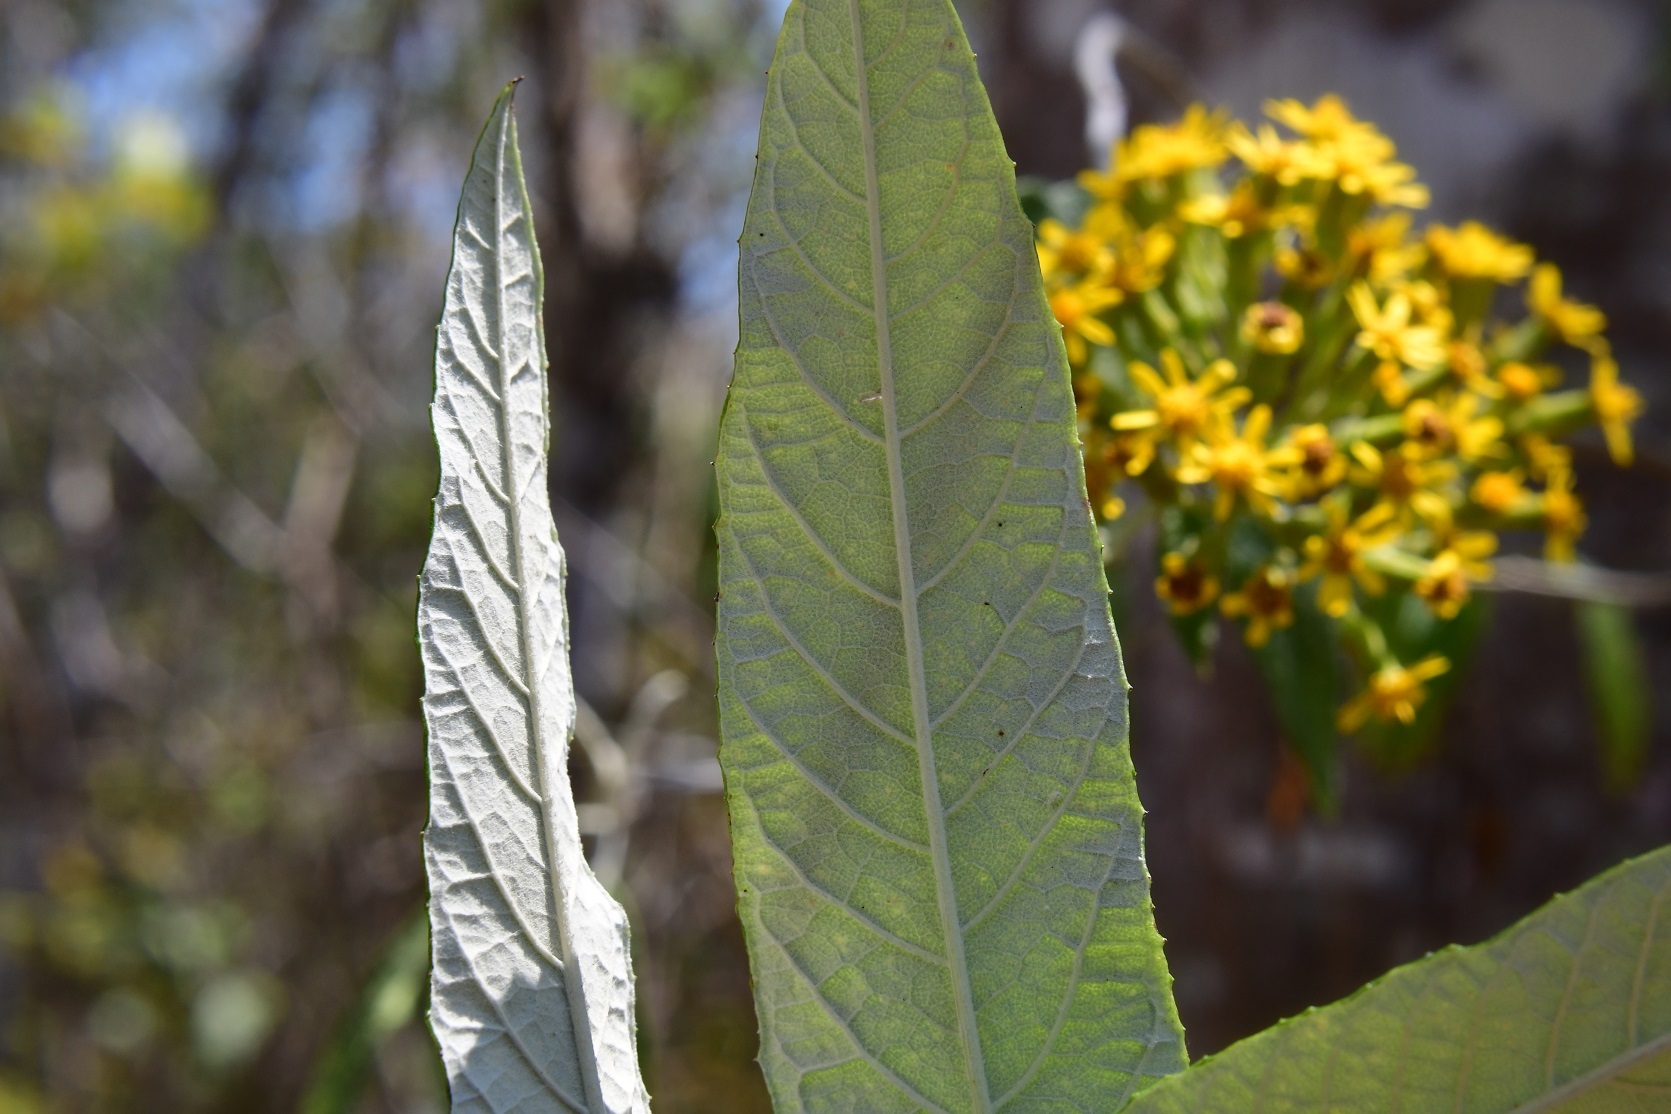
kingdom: Plantae
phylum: Tracheophyta
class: Magnoliopsida
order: Asterales
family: Asteraceae
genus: Zemisia
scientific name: Zemisia thomasii
